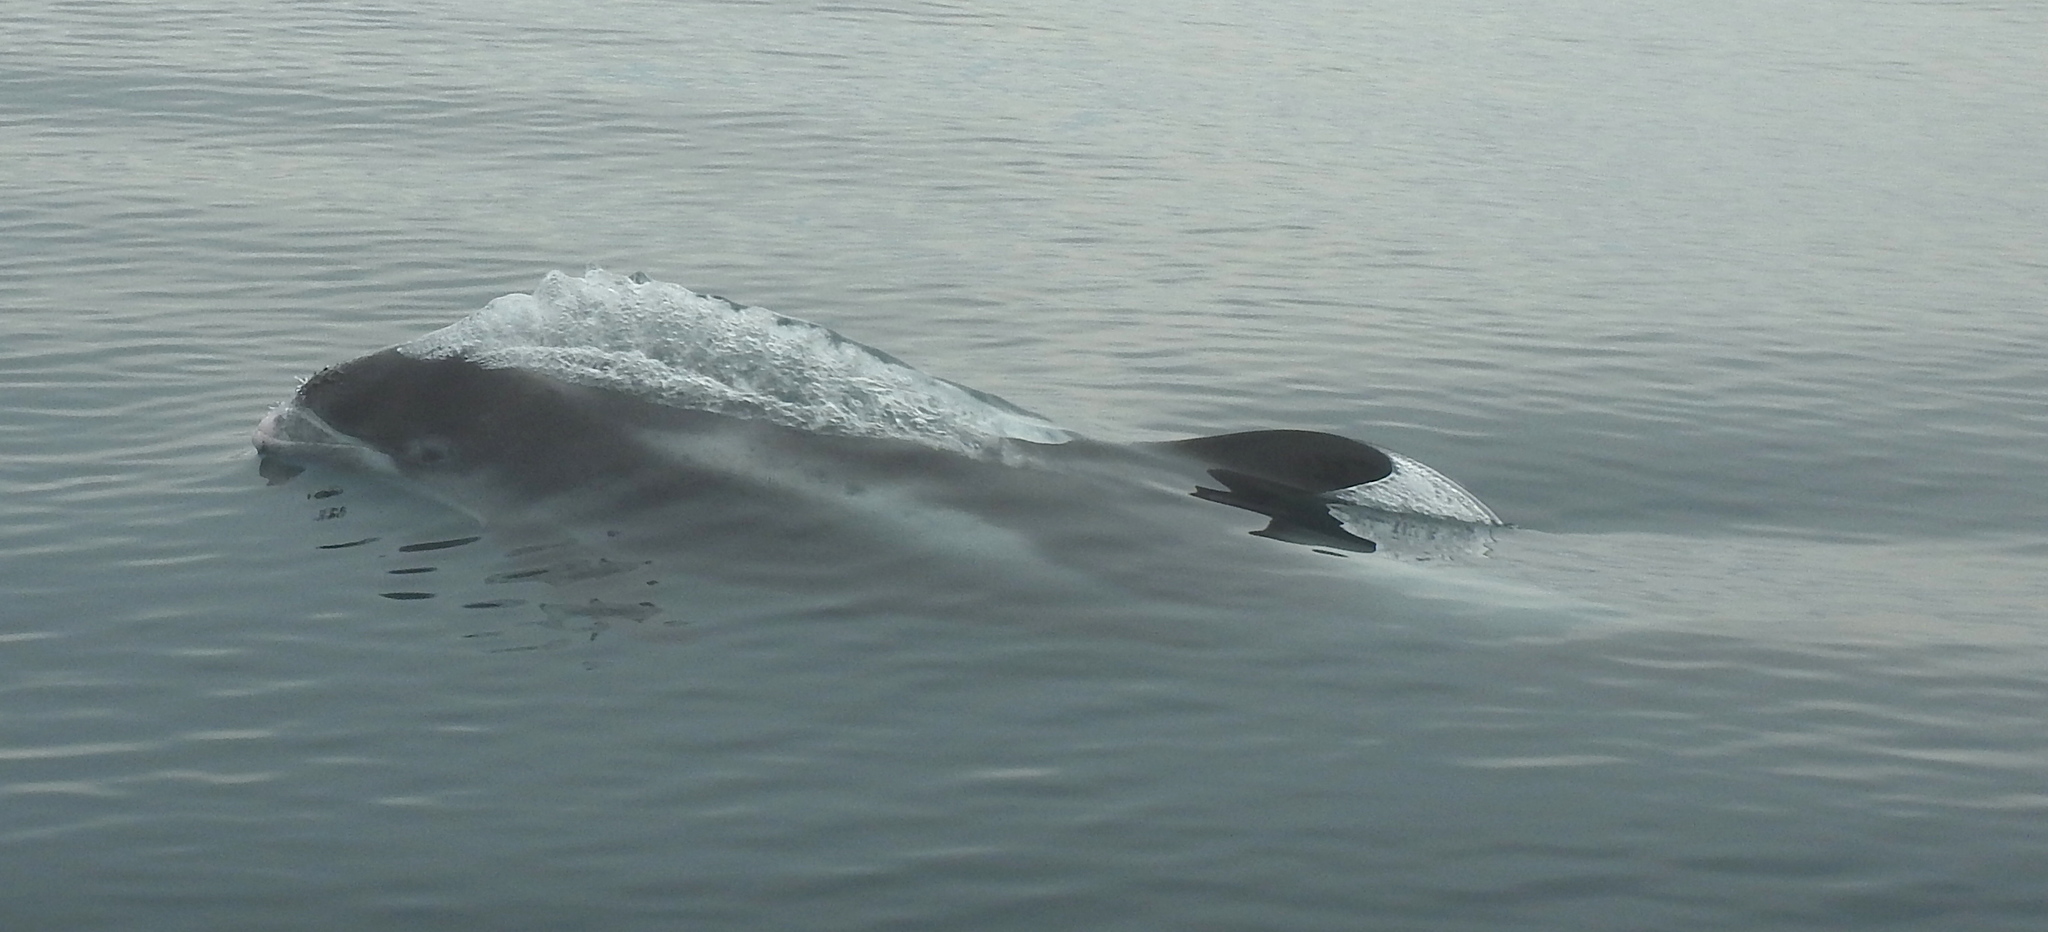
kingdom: Animalia
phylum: Chordata
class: Mammalia
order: Cetacea
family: Delphinidae
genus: Lagenorhynchus
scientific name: Lagenorhynchus albirostris
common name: White-beaked dolphin
